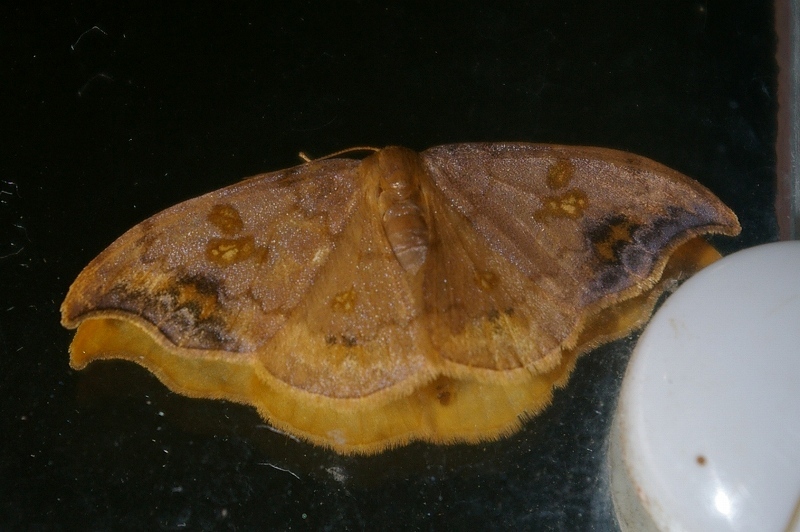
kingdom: Animalia
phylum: Arthropoda
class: Insecta
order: Lepidoptera
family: Drepanidae
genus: Sabra
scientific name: Sabra harpagula
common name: Scarce hook-tip
